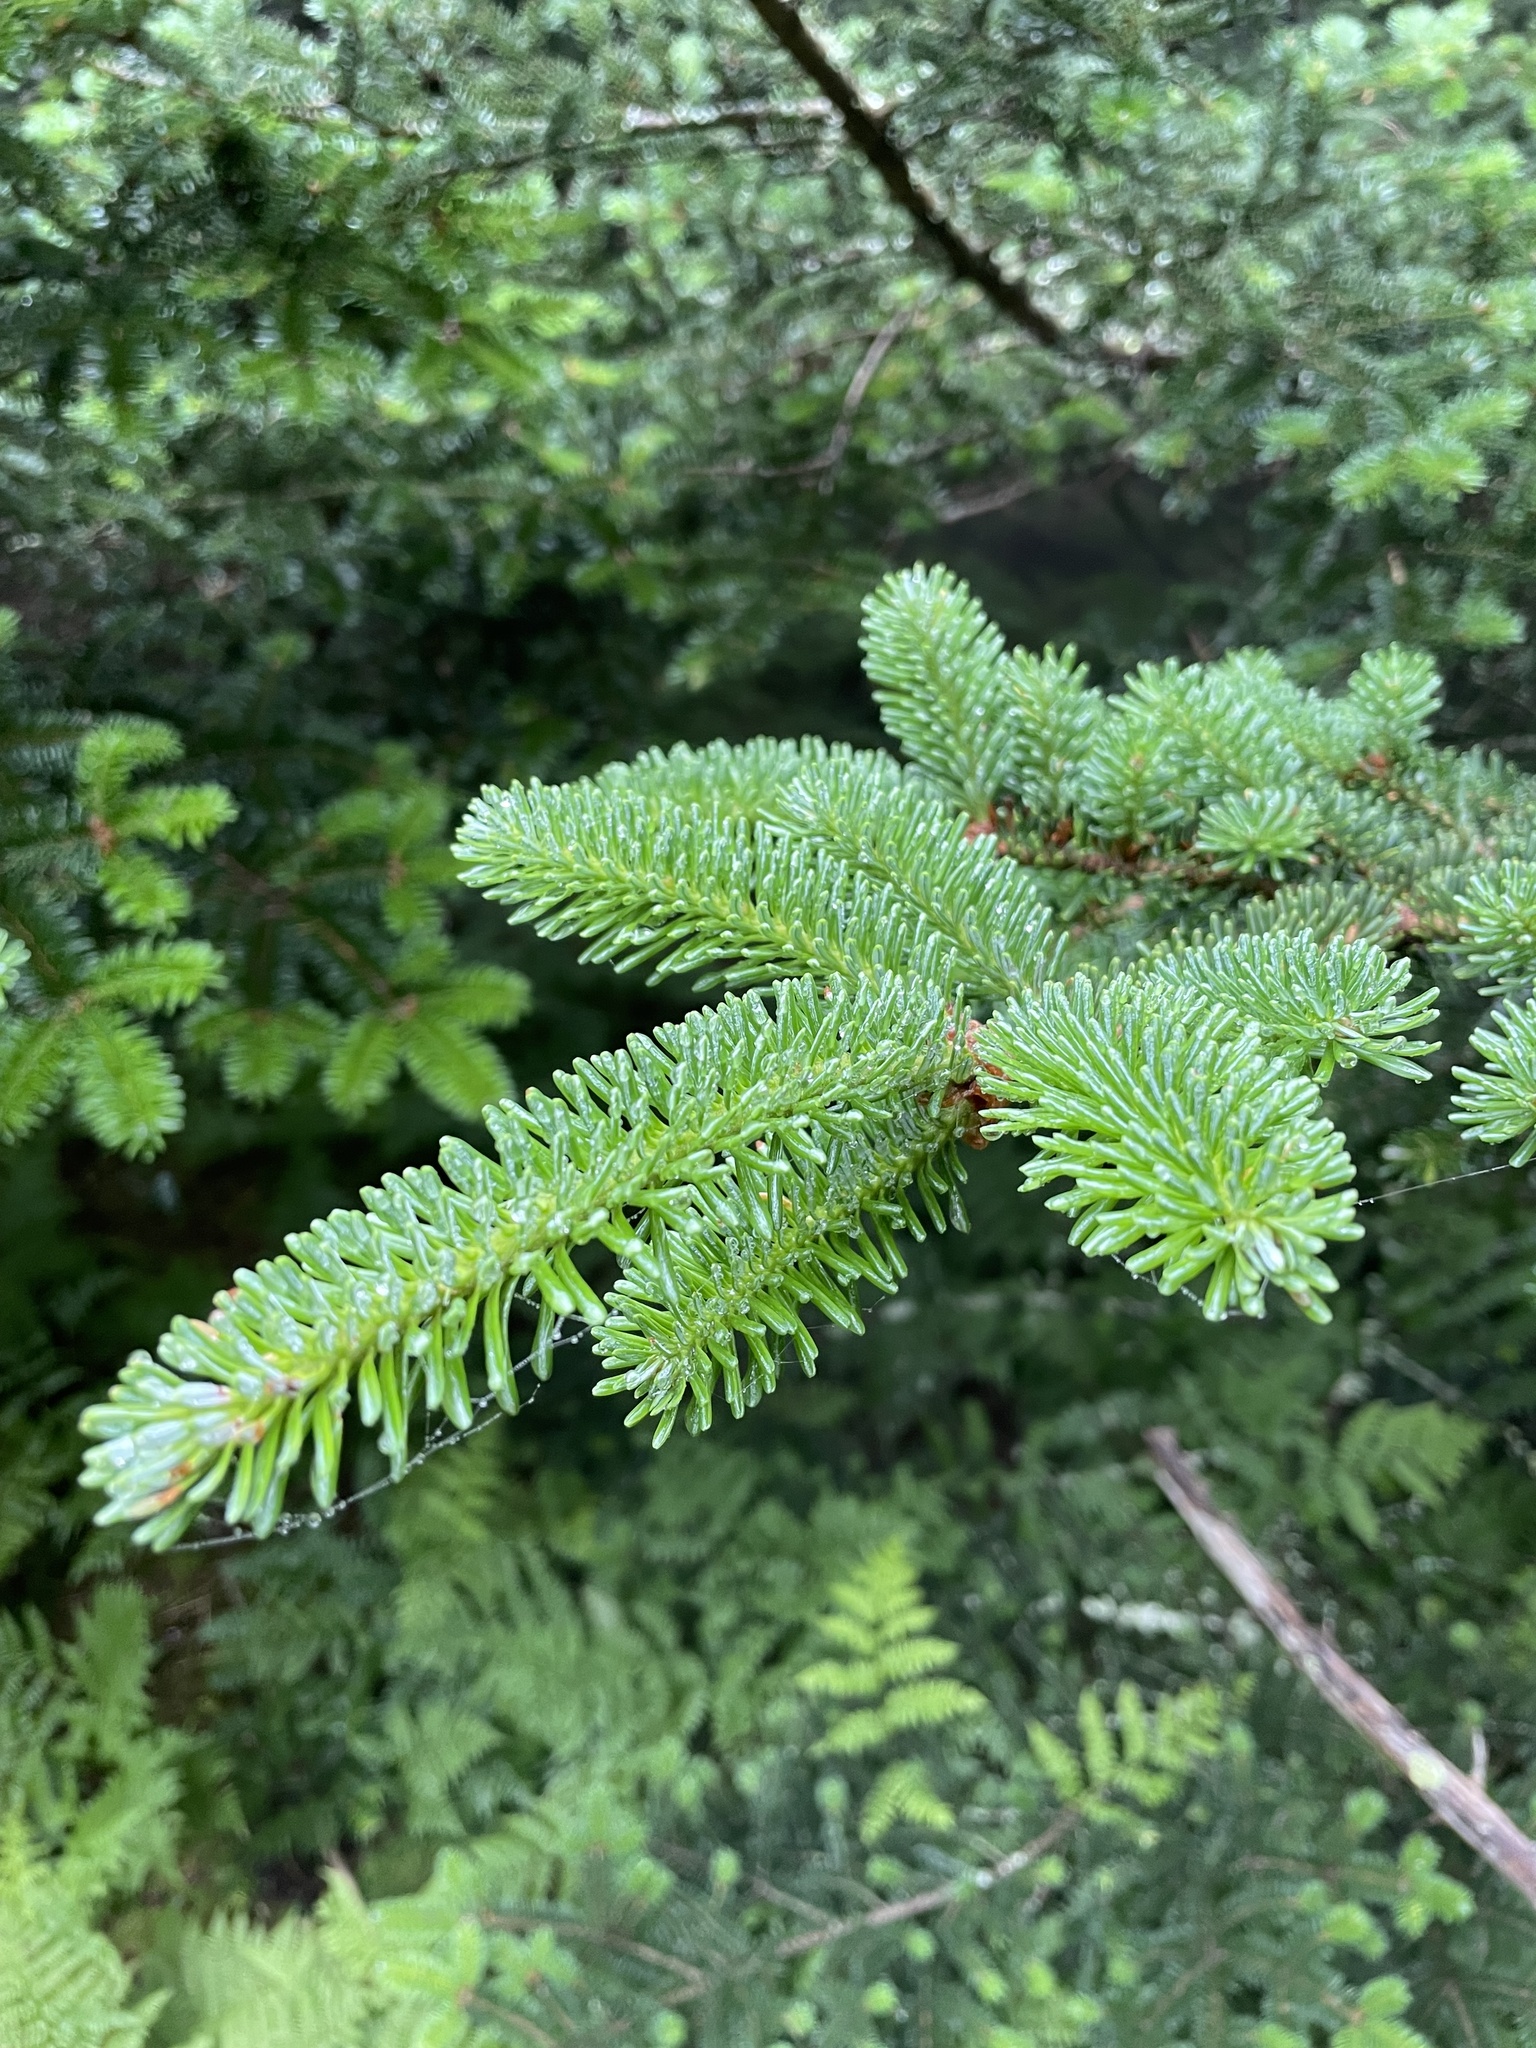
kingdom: Plantae
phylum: Tracheophyta
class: Pinopsida
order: Pinales
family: Pinaceae
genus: Abies
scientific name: Abies fraseri
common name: Fraser fir
